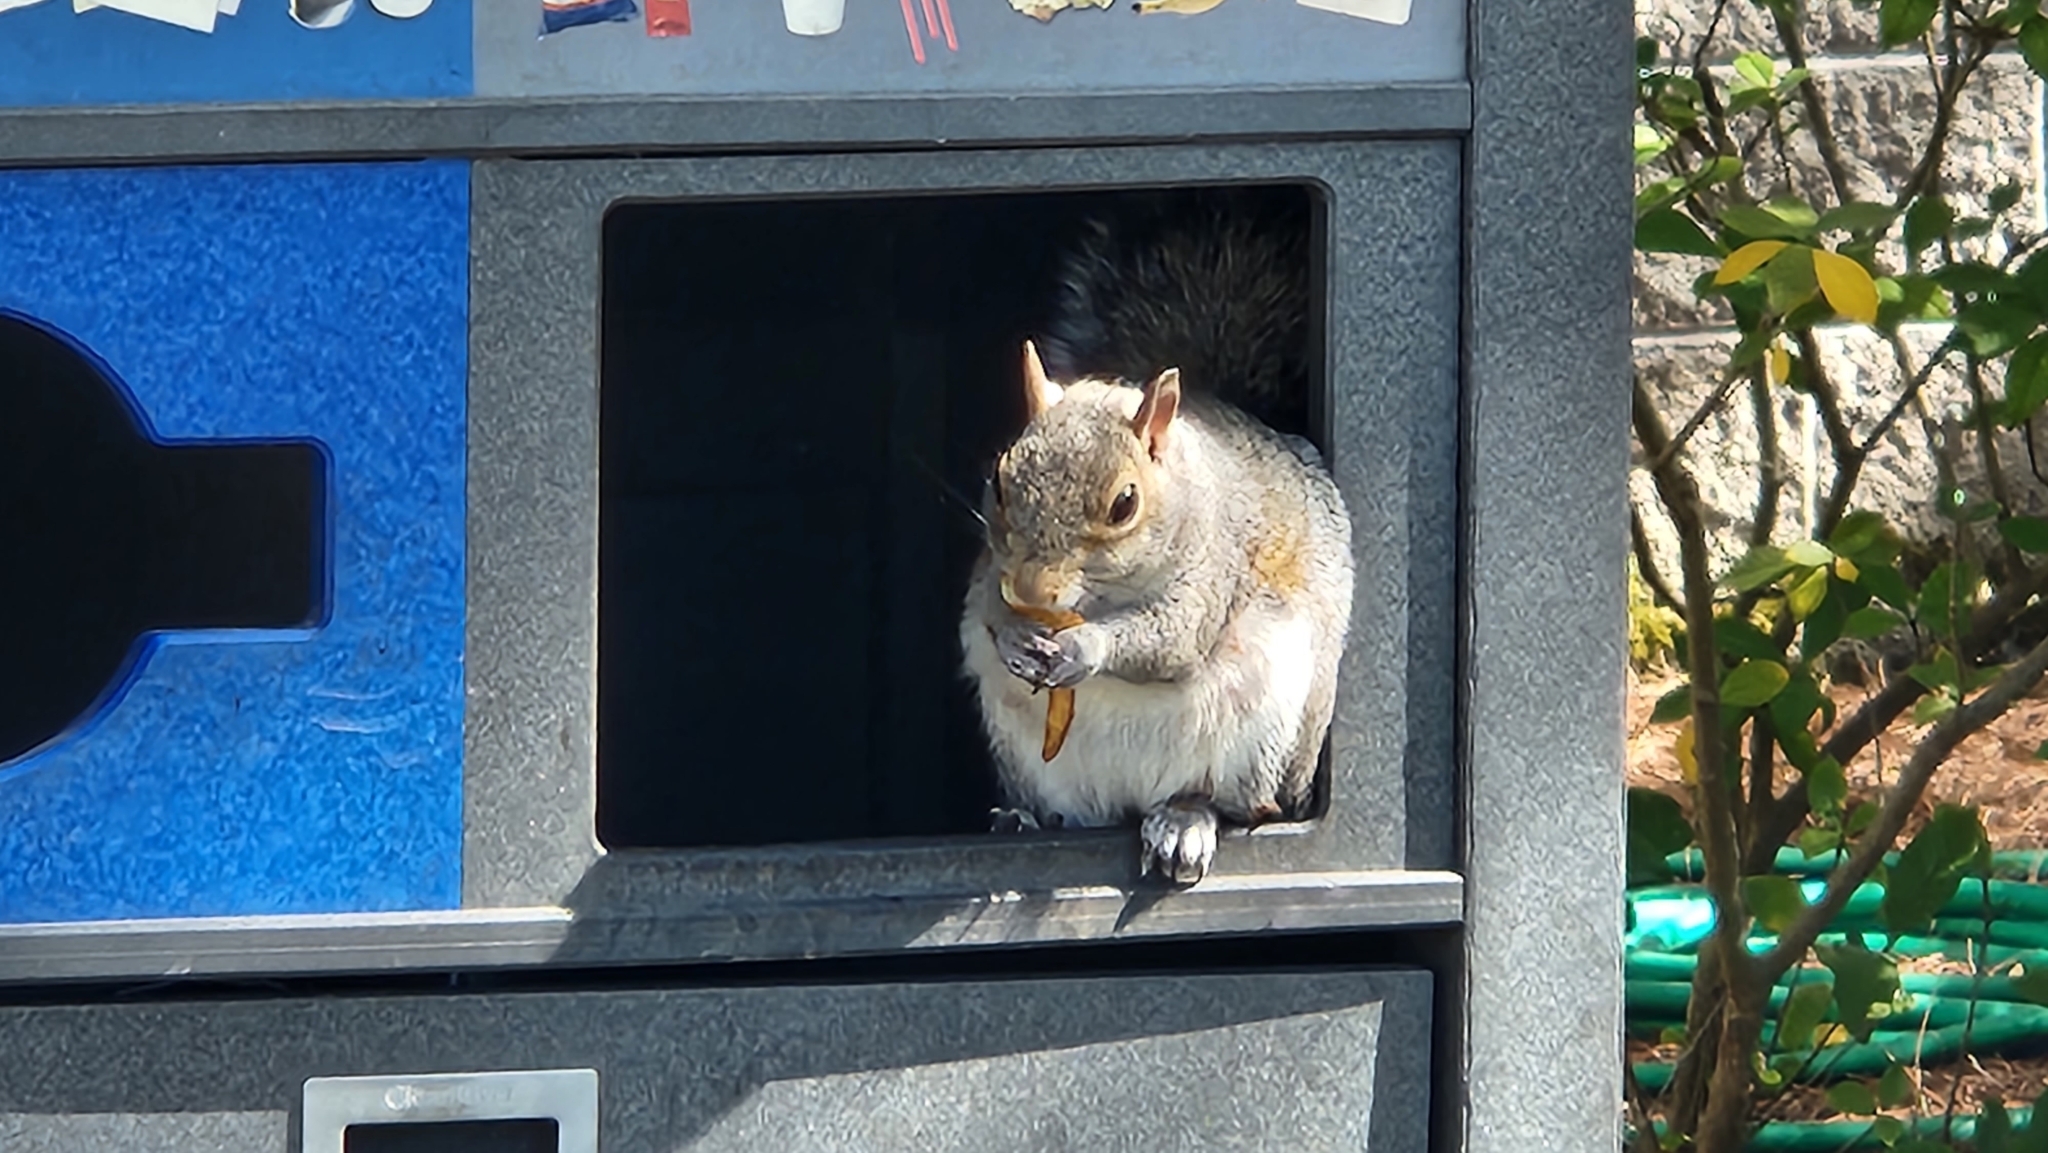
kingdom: Animalia
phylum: Chordata
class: Mammalia
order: Rodentia
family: Sciuridae
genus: Sciurus
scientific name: Sciurus carolinensis
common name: Eastern gray squirrel
